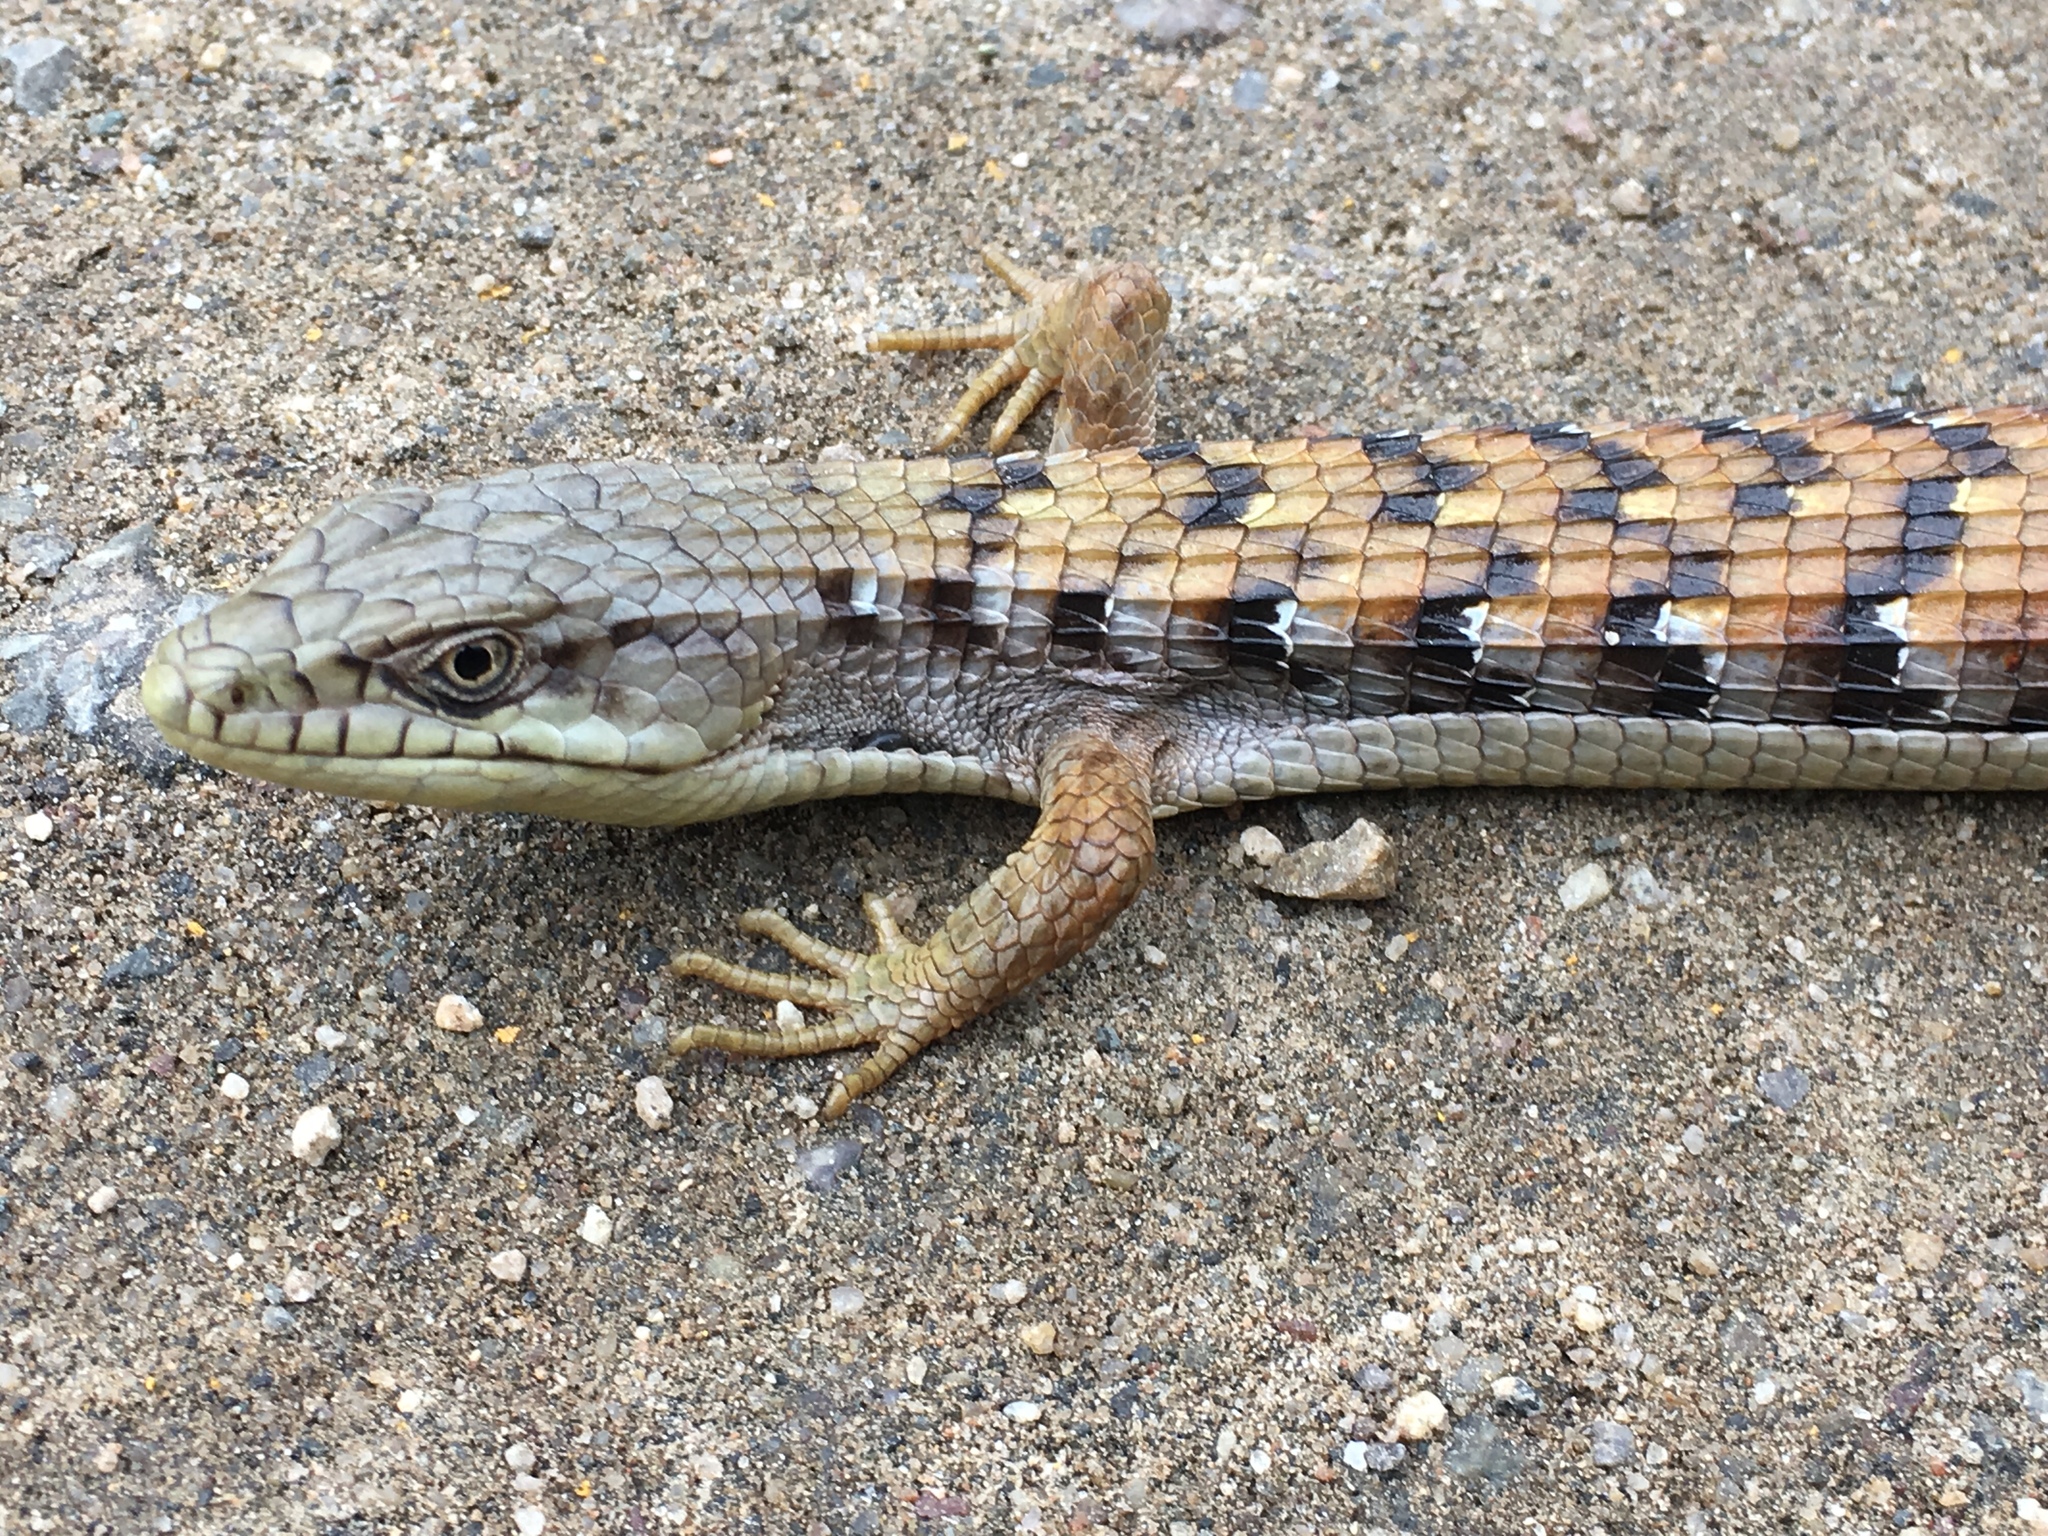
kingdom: Animalia
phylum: Chordata
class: Squamata
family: Anguidae
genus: Elgaria
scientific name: Elgaria multicarinata
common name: Southern alligator lizard
